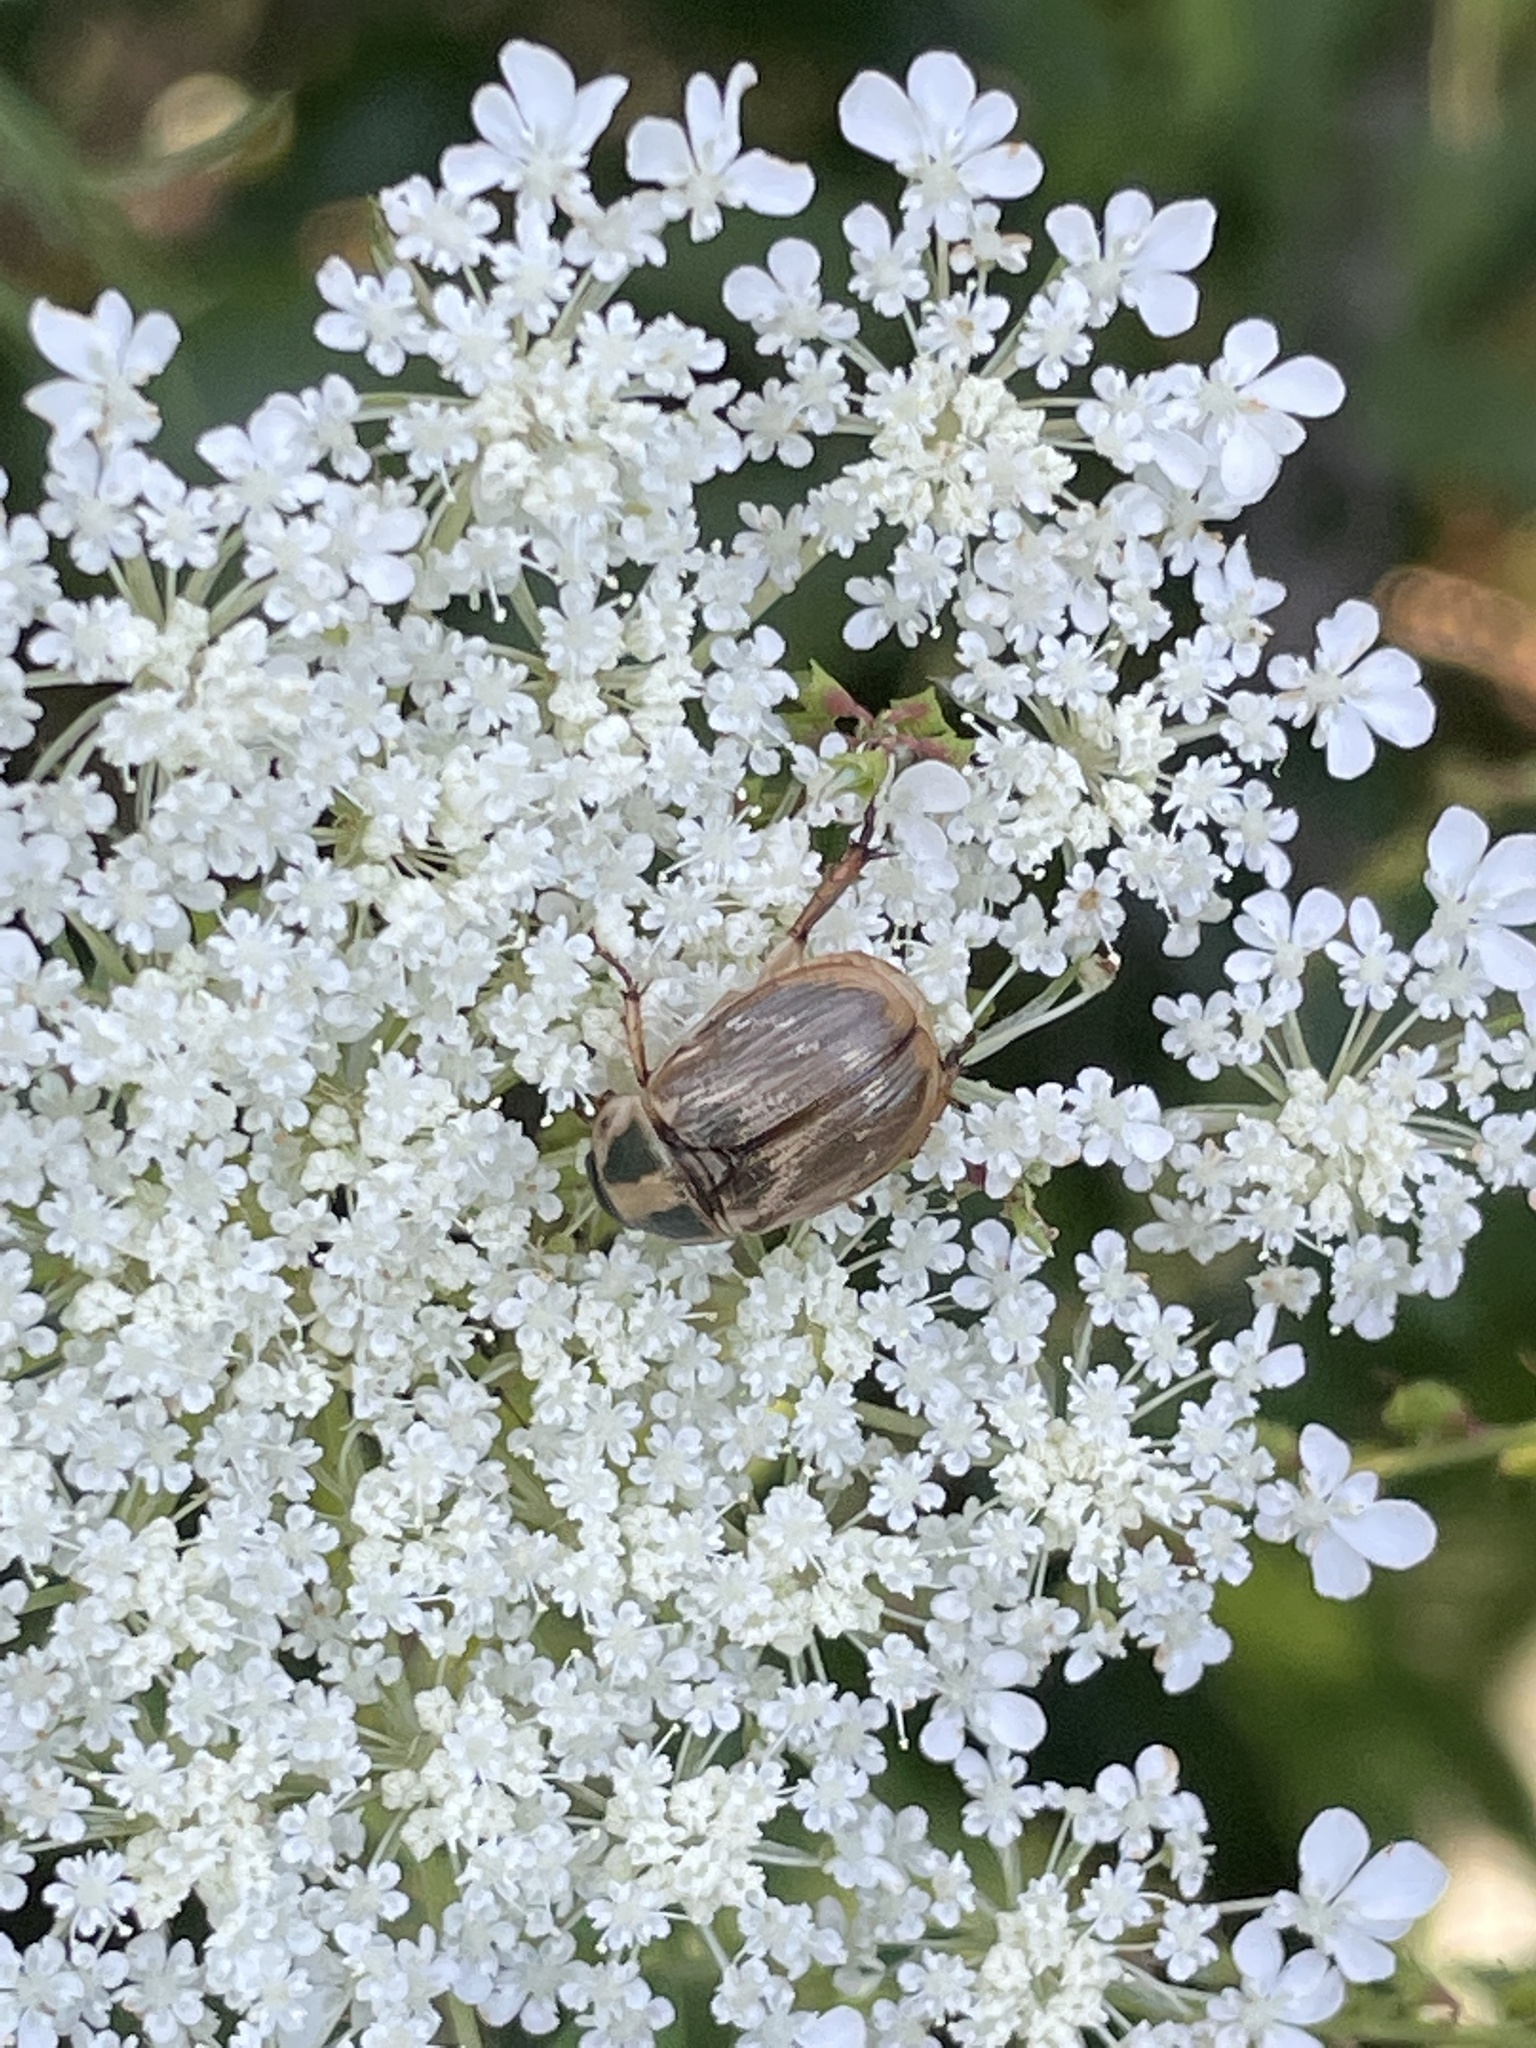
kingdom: Animalia
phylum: Arthropoda
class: Insecta
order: Coleoptera
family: Scarabaeidae
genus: Exomala
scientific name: Exomala orientalis
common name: Oriental beetle
